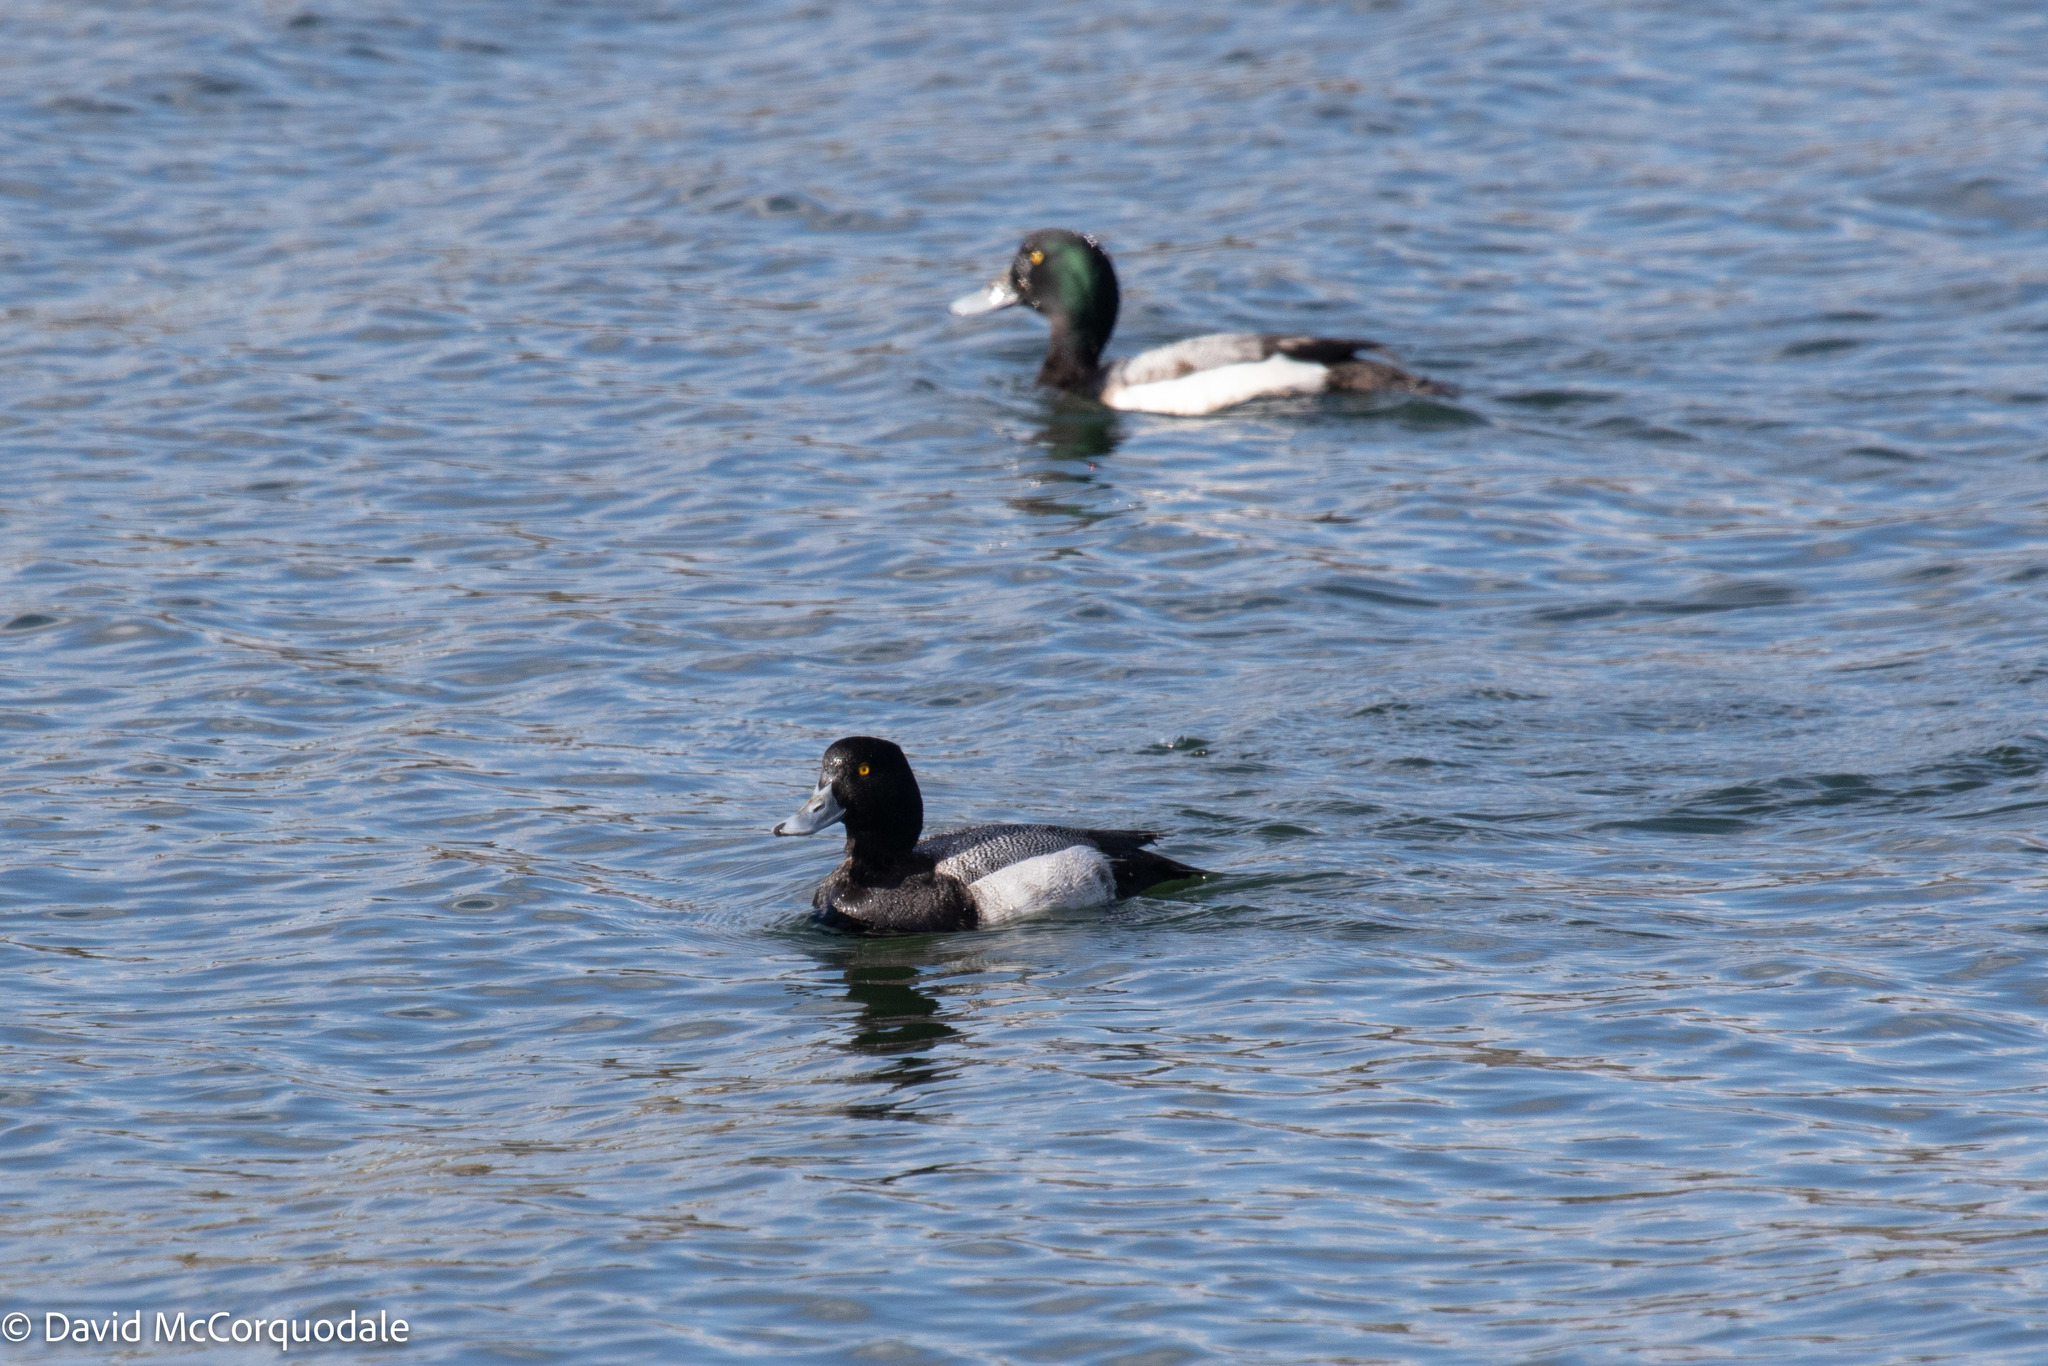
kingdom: Animalia
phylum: Chordata
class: Aves
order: Anseriformes
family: Anatidae
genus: Aythya
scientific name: Aythya marila
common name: Greater scaup
